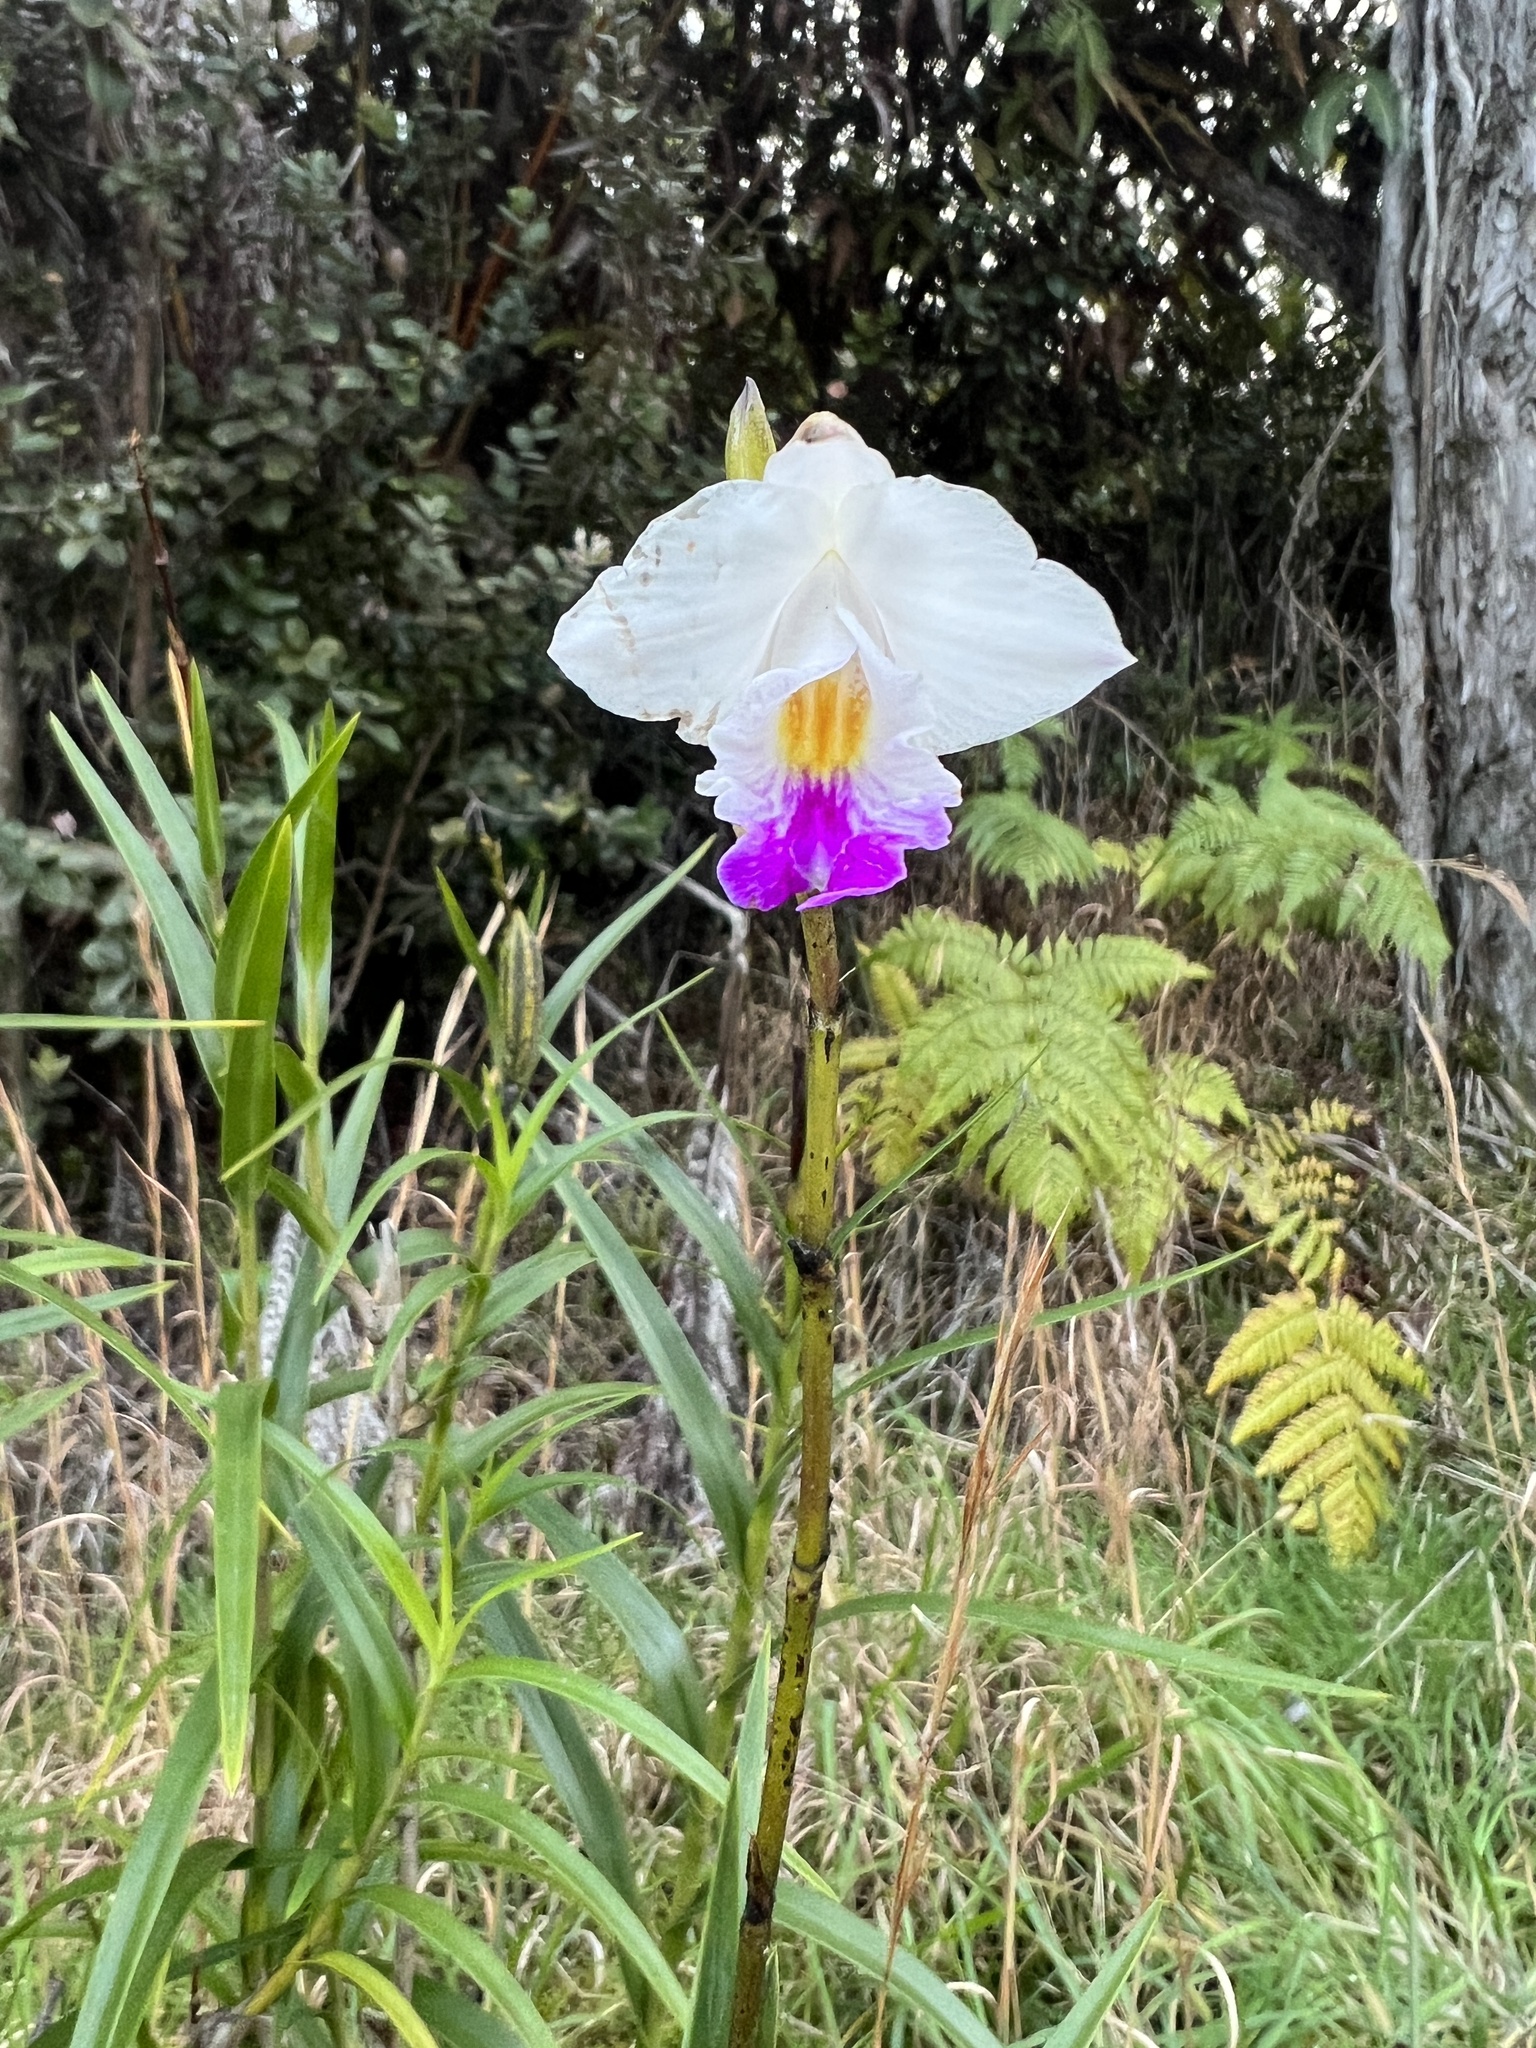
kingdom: Plantae
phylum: Tracheophyta
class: Liliopsida
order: Asparagales
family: Orchidaceae
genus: Arundina
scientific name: Arundina graminifolia
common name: Bamboo orchid
